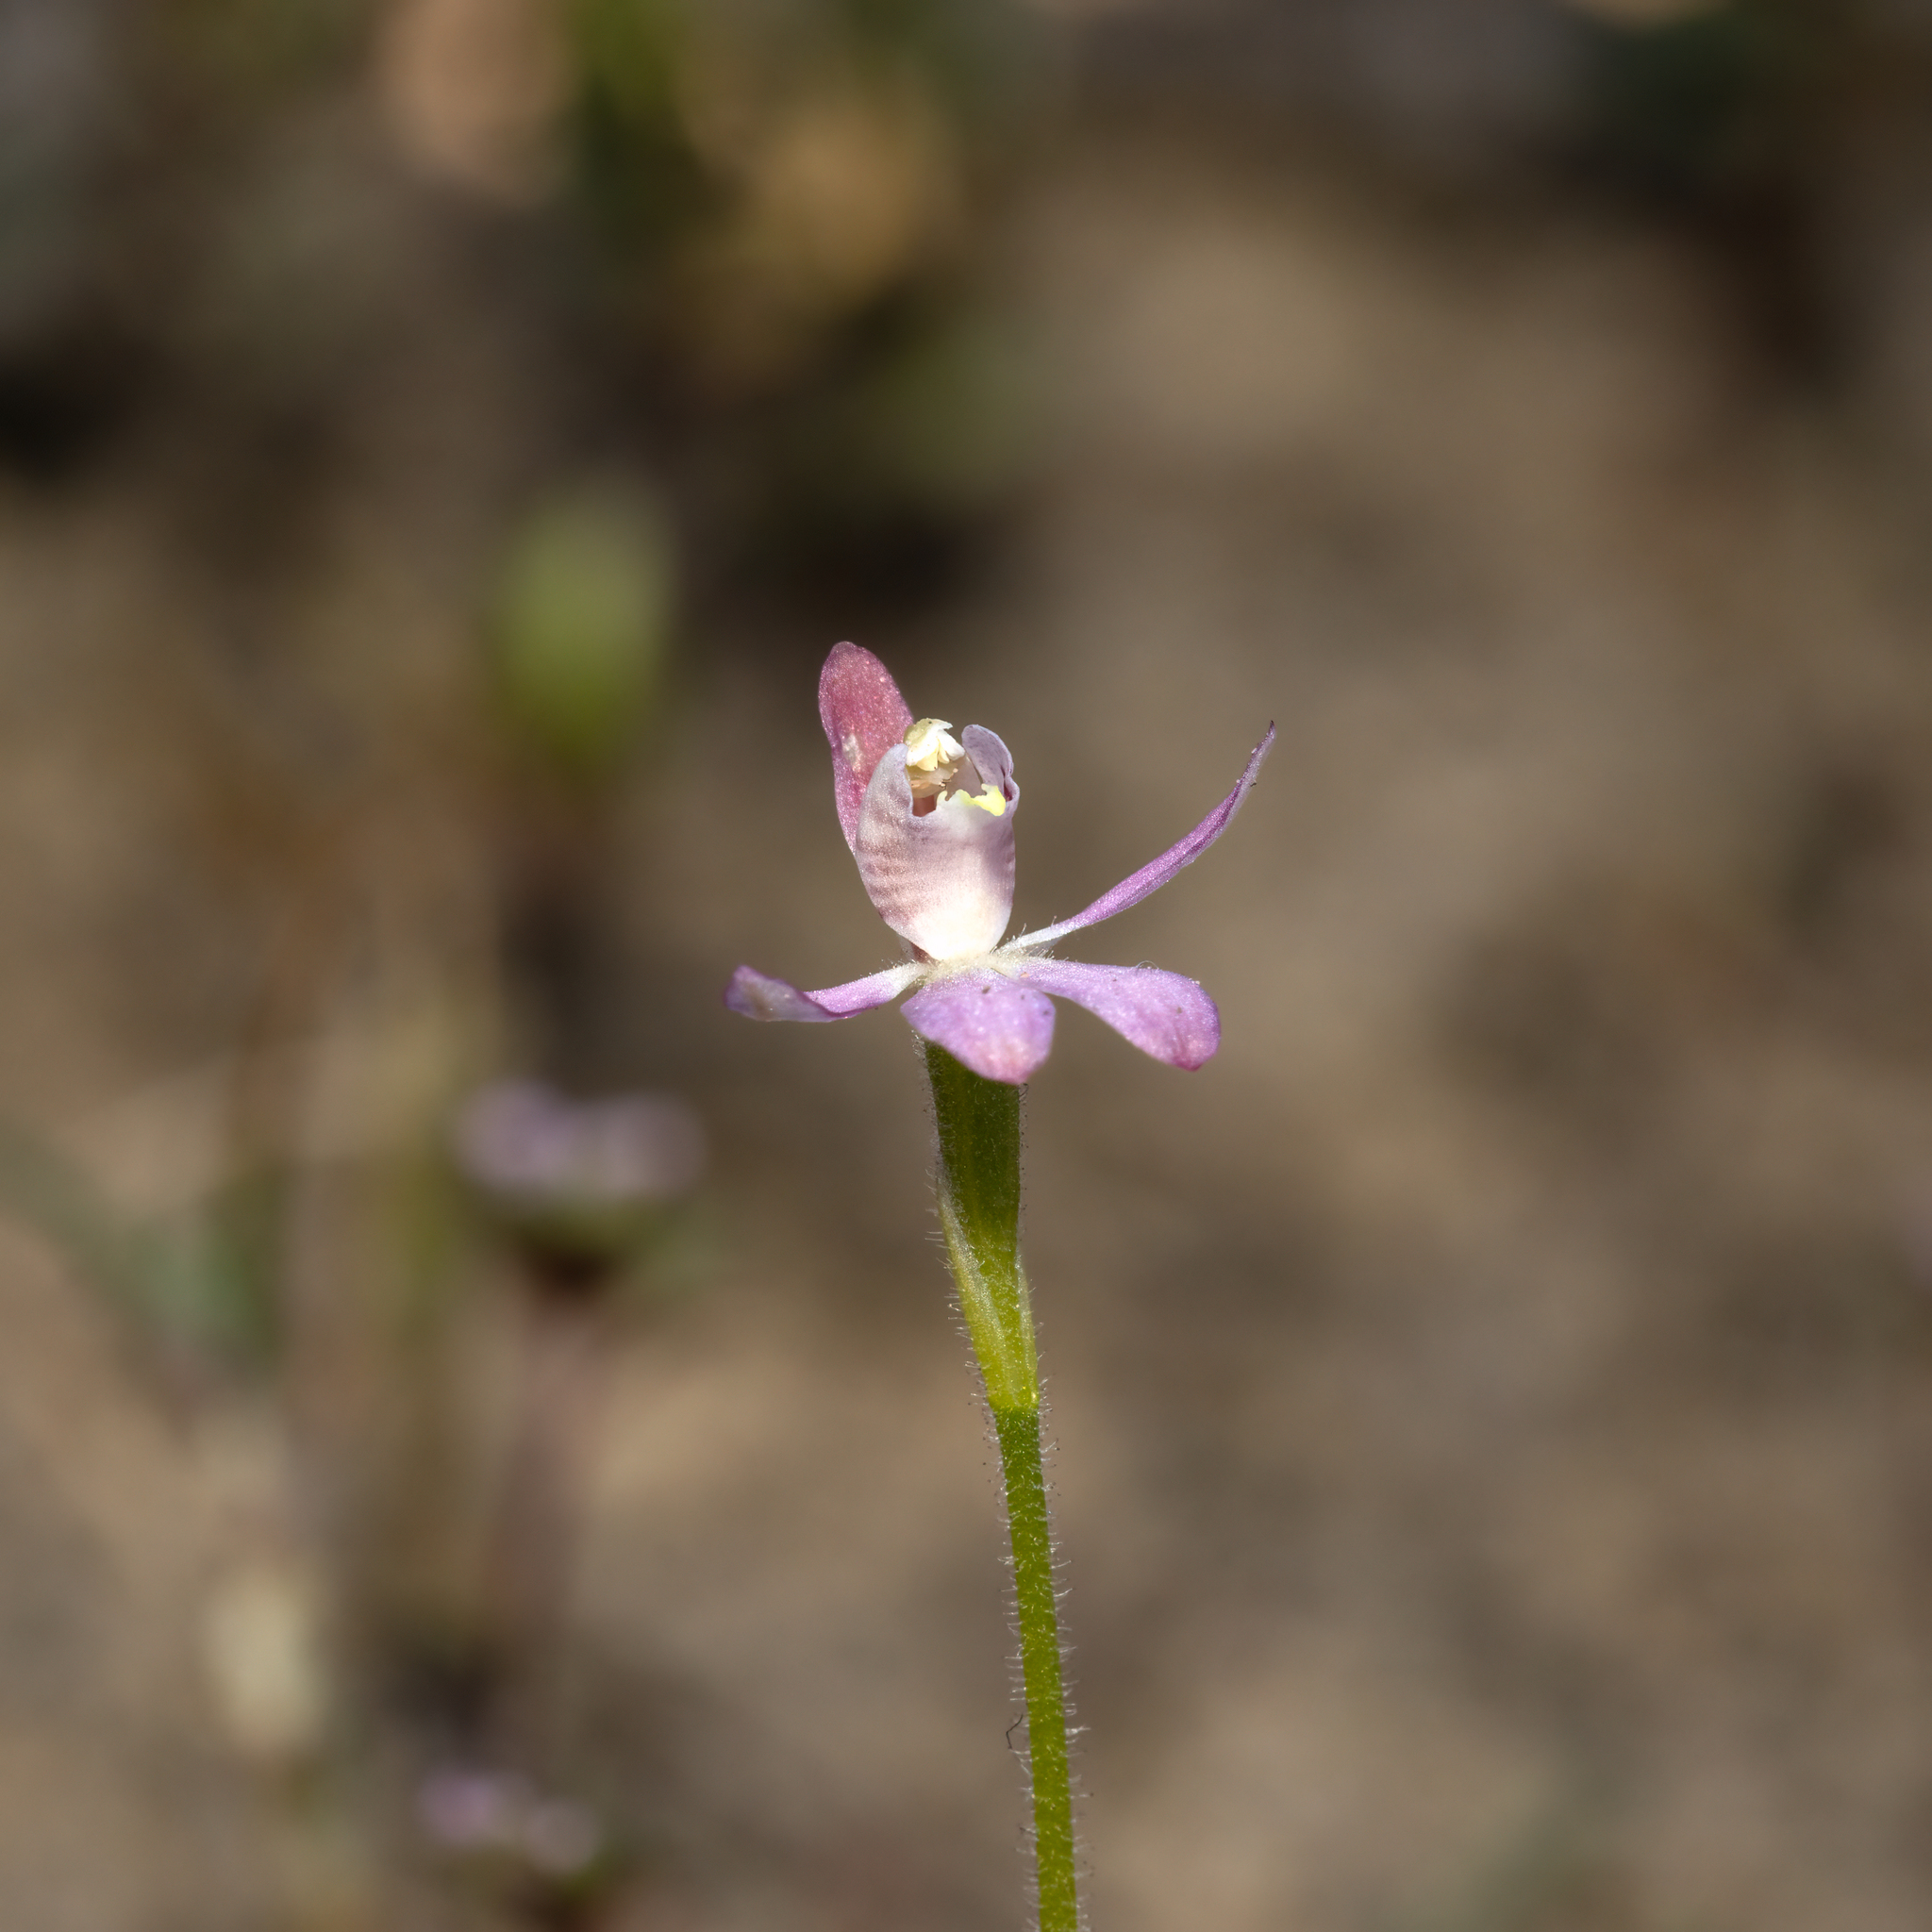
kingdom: Plantae
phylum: Tracheophyta
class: Liliopsida
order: Asparagales
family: Orchidaceae
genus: Caladenia
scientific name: Caladenia pusilla
